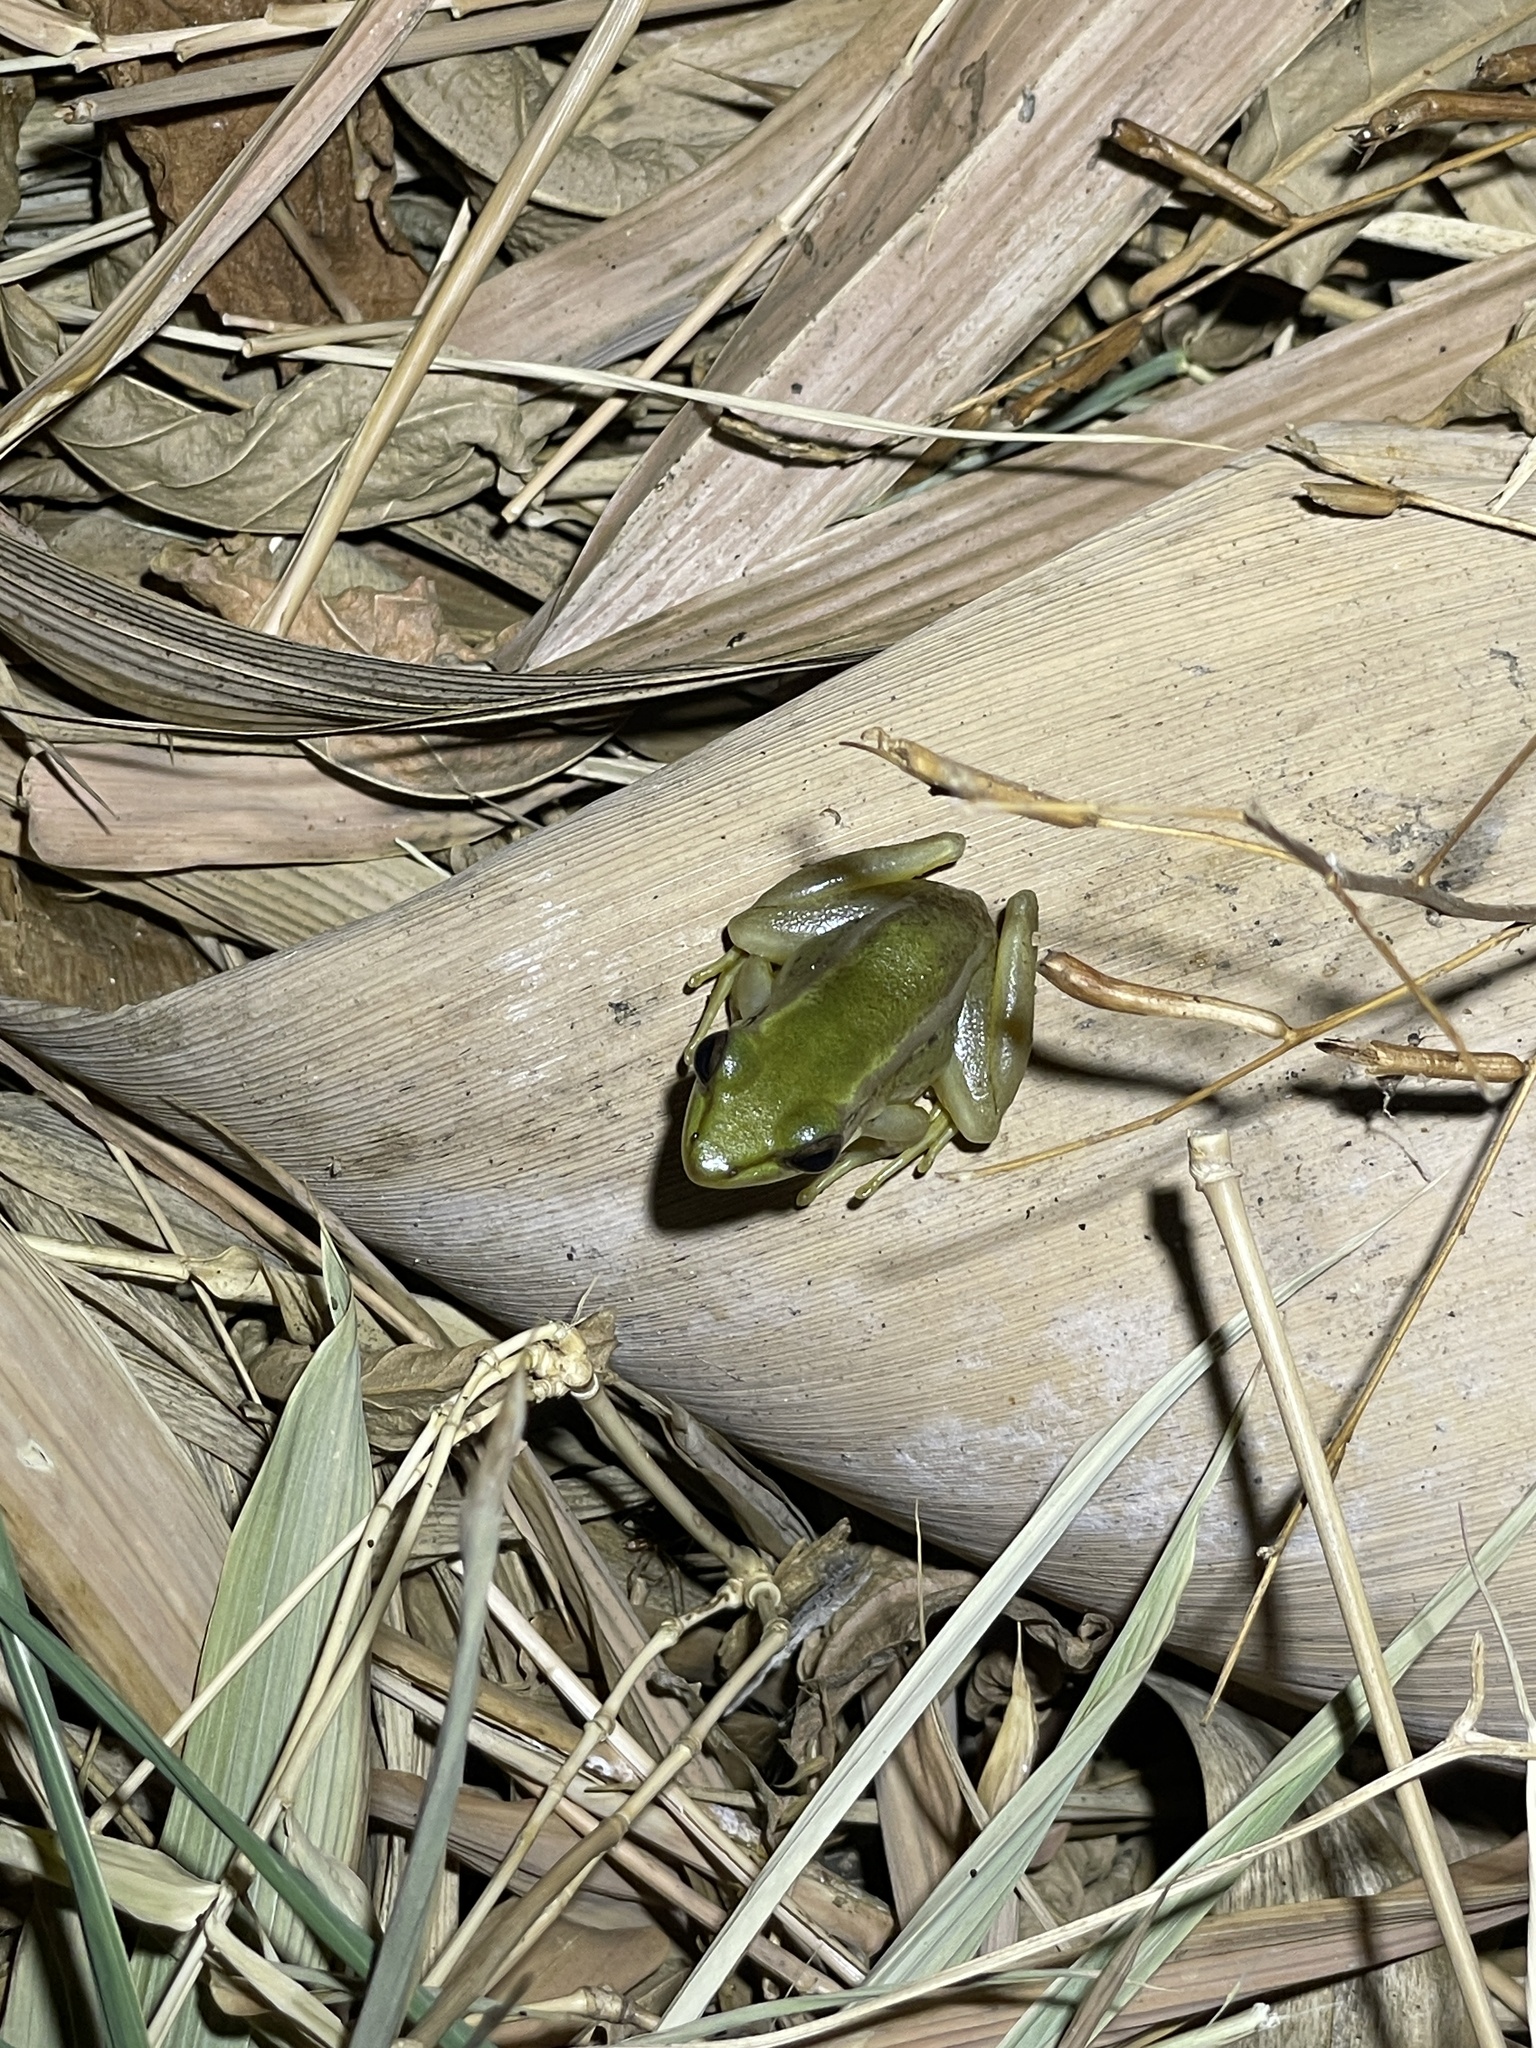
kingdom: Animalia
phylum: Chordata
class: Amphibia
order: Anura
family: Ranidae
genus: Hylarana
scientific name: Hylarana erythraea
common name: Common green frog/green paddy frog/leaf frog
